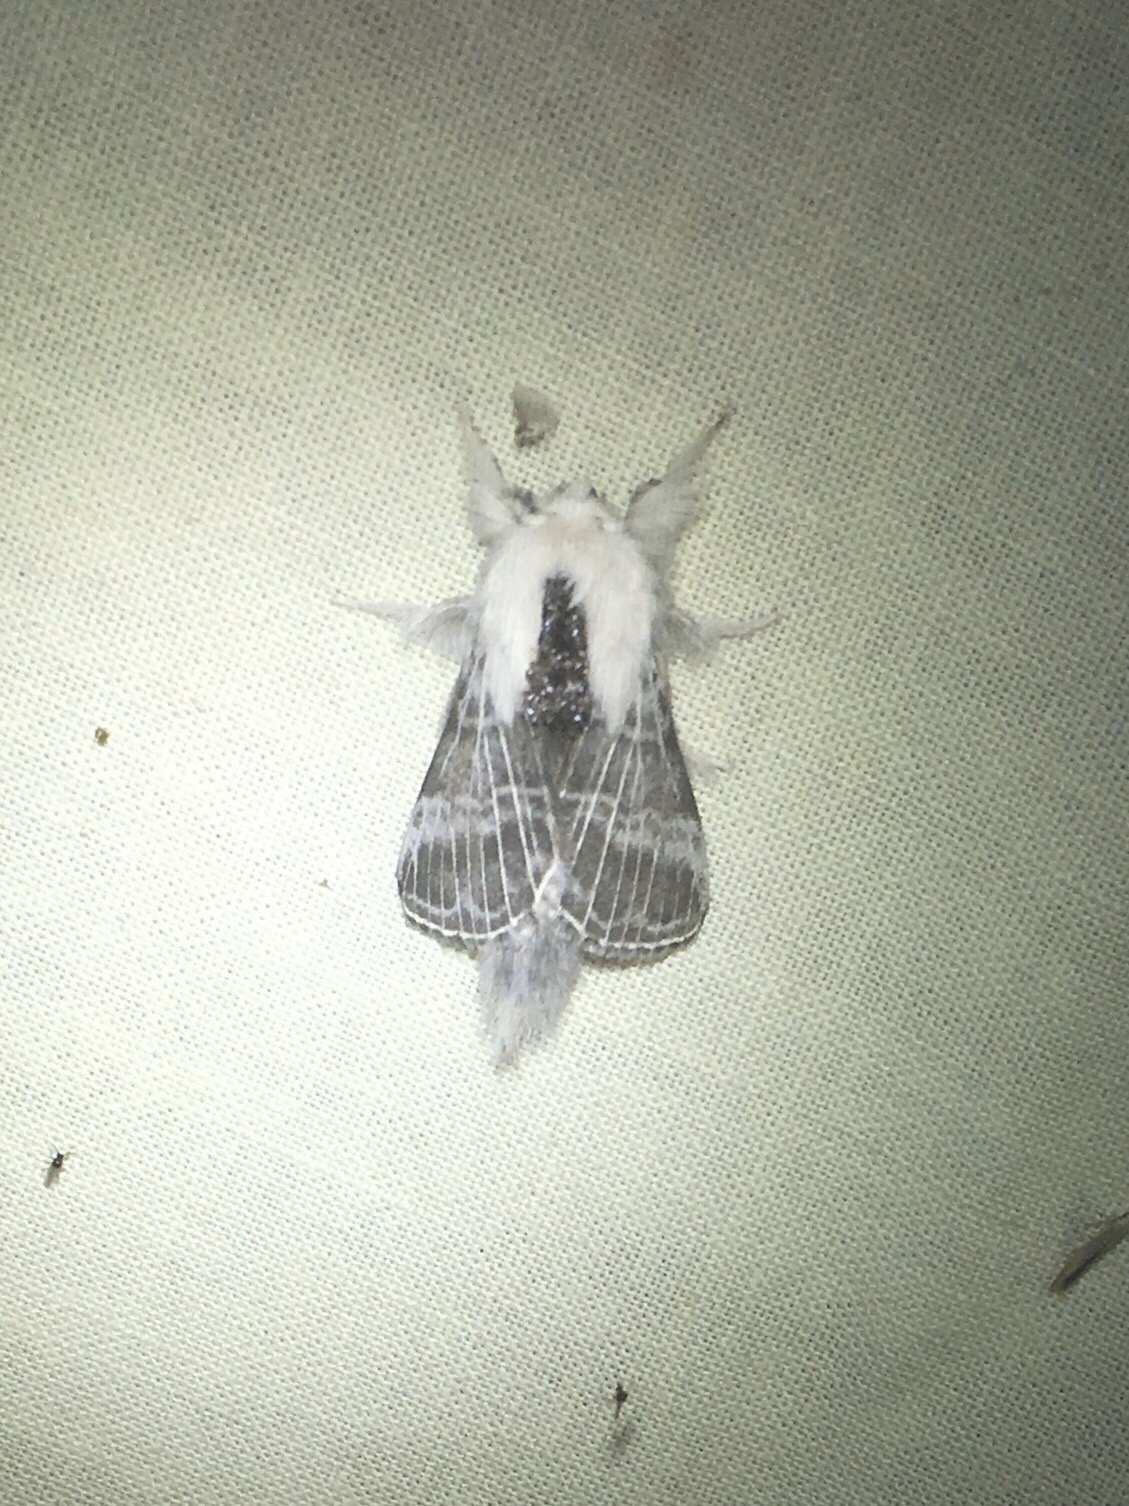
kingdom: Animalia
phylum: Arthropoda
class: Insecta
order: Lepidoptera
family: Lasiocampidae
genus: Tolype
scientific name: Tolype velleda
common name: Large tolype moth
